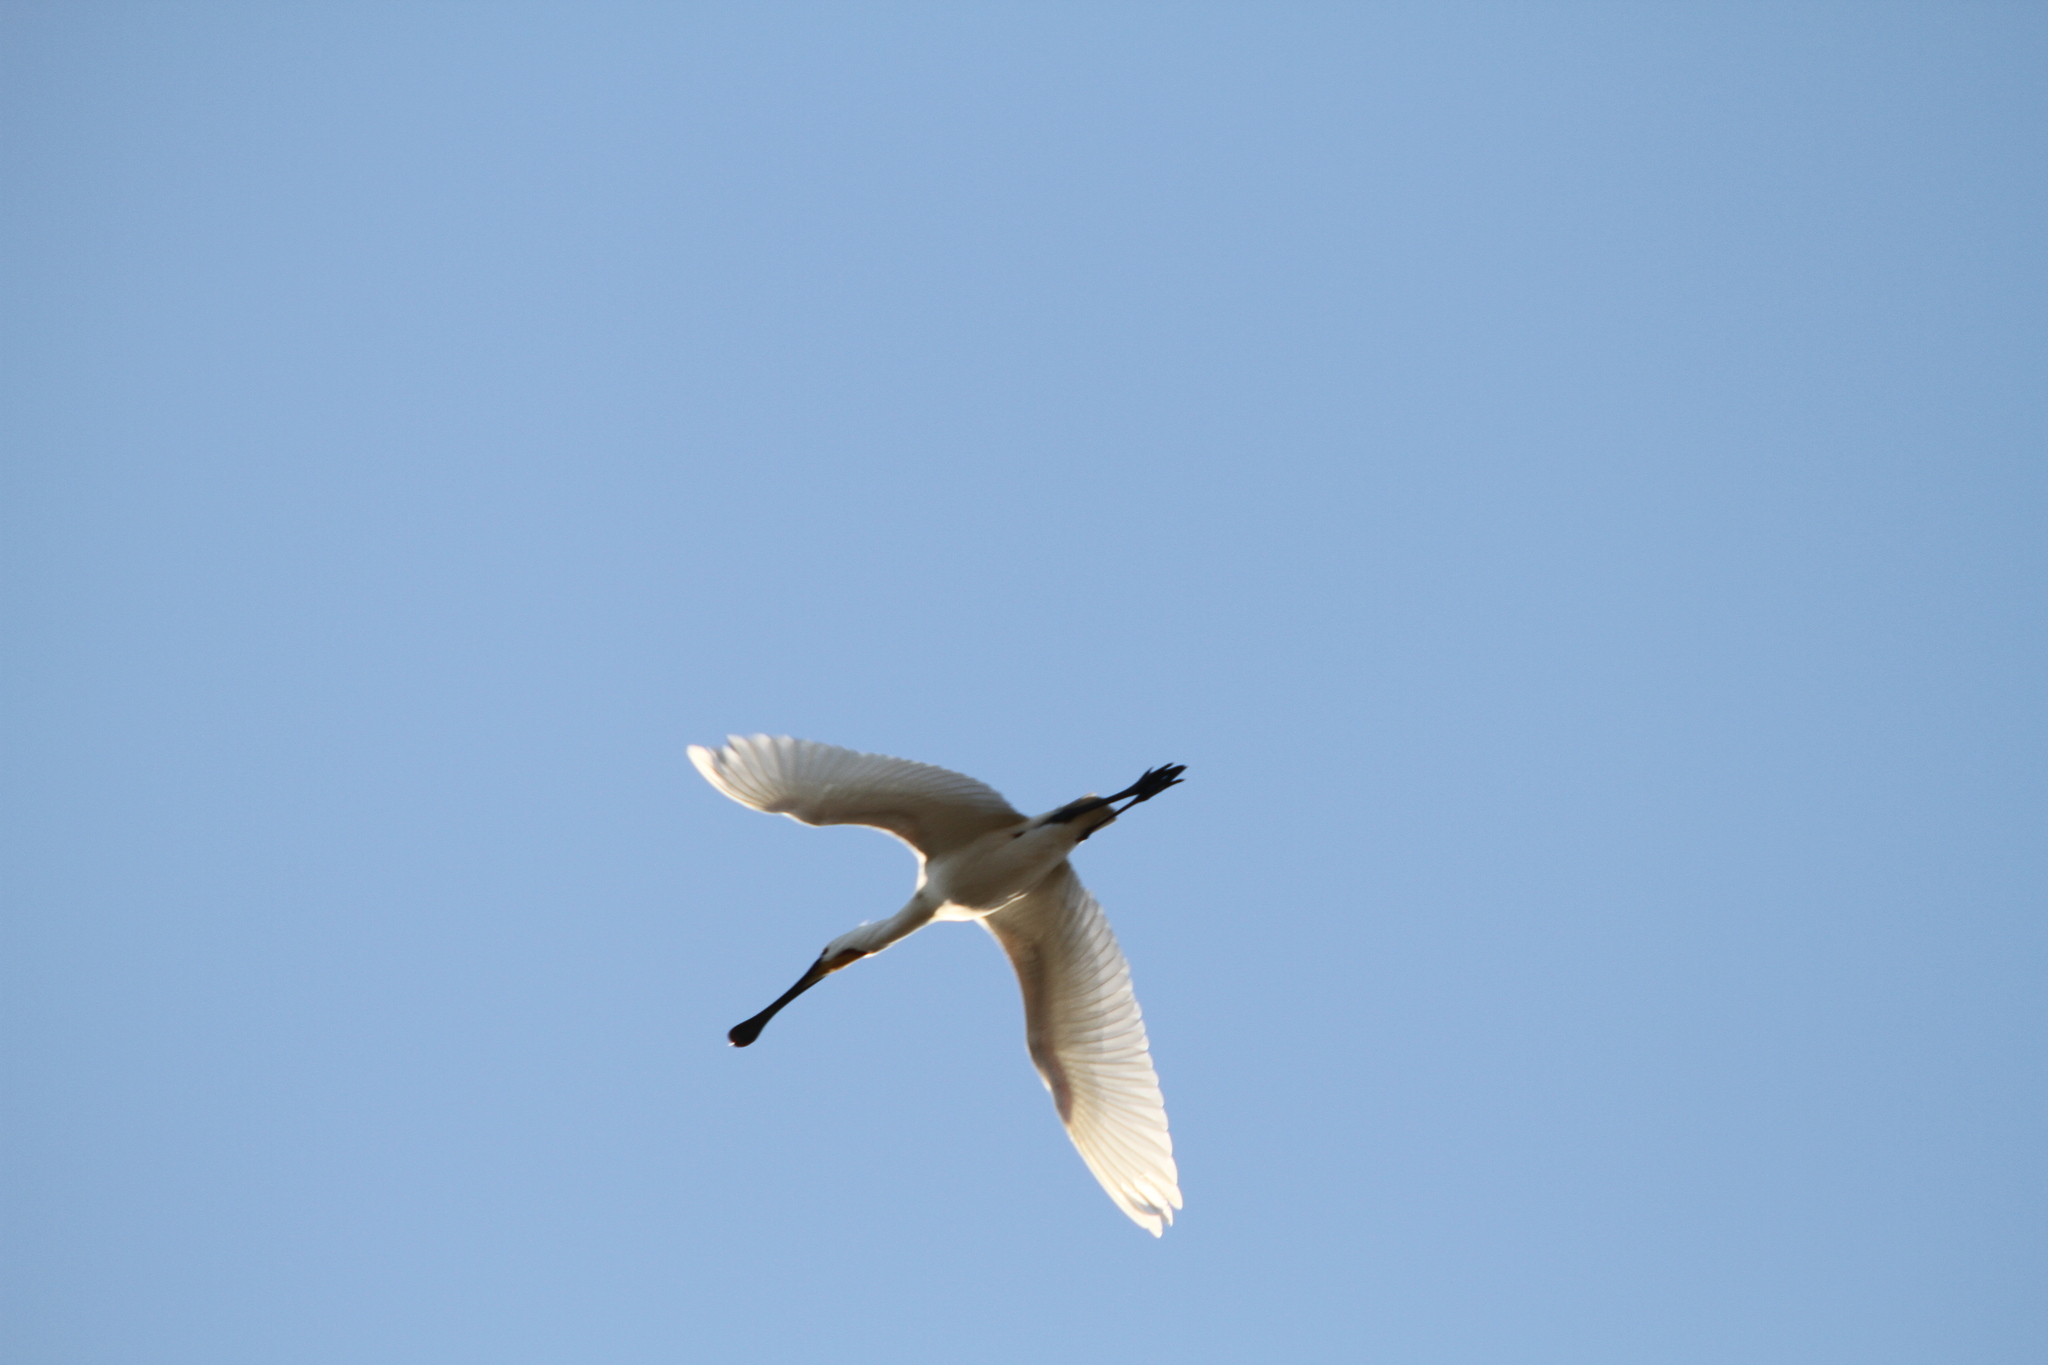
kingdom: Animalia
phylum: Chordata
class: Aves
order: Pelecaniformes
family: Threskiornithidae
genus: Platalea
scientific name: Platalea leucorodia
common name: Eurasian spoonbill
